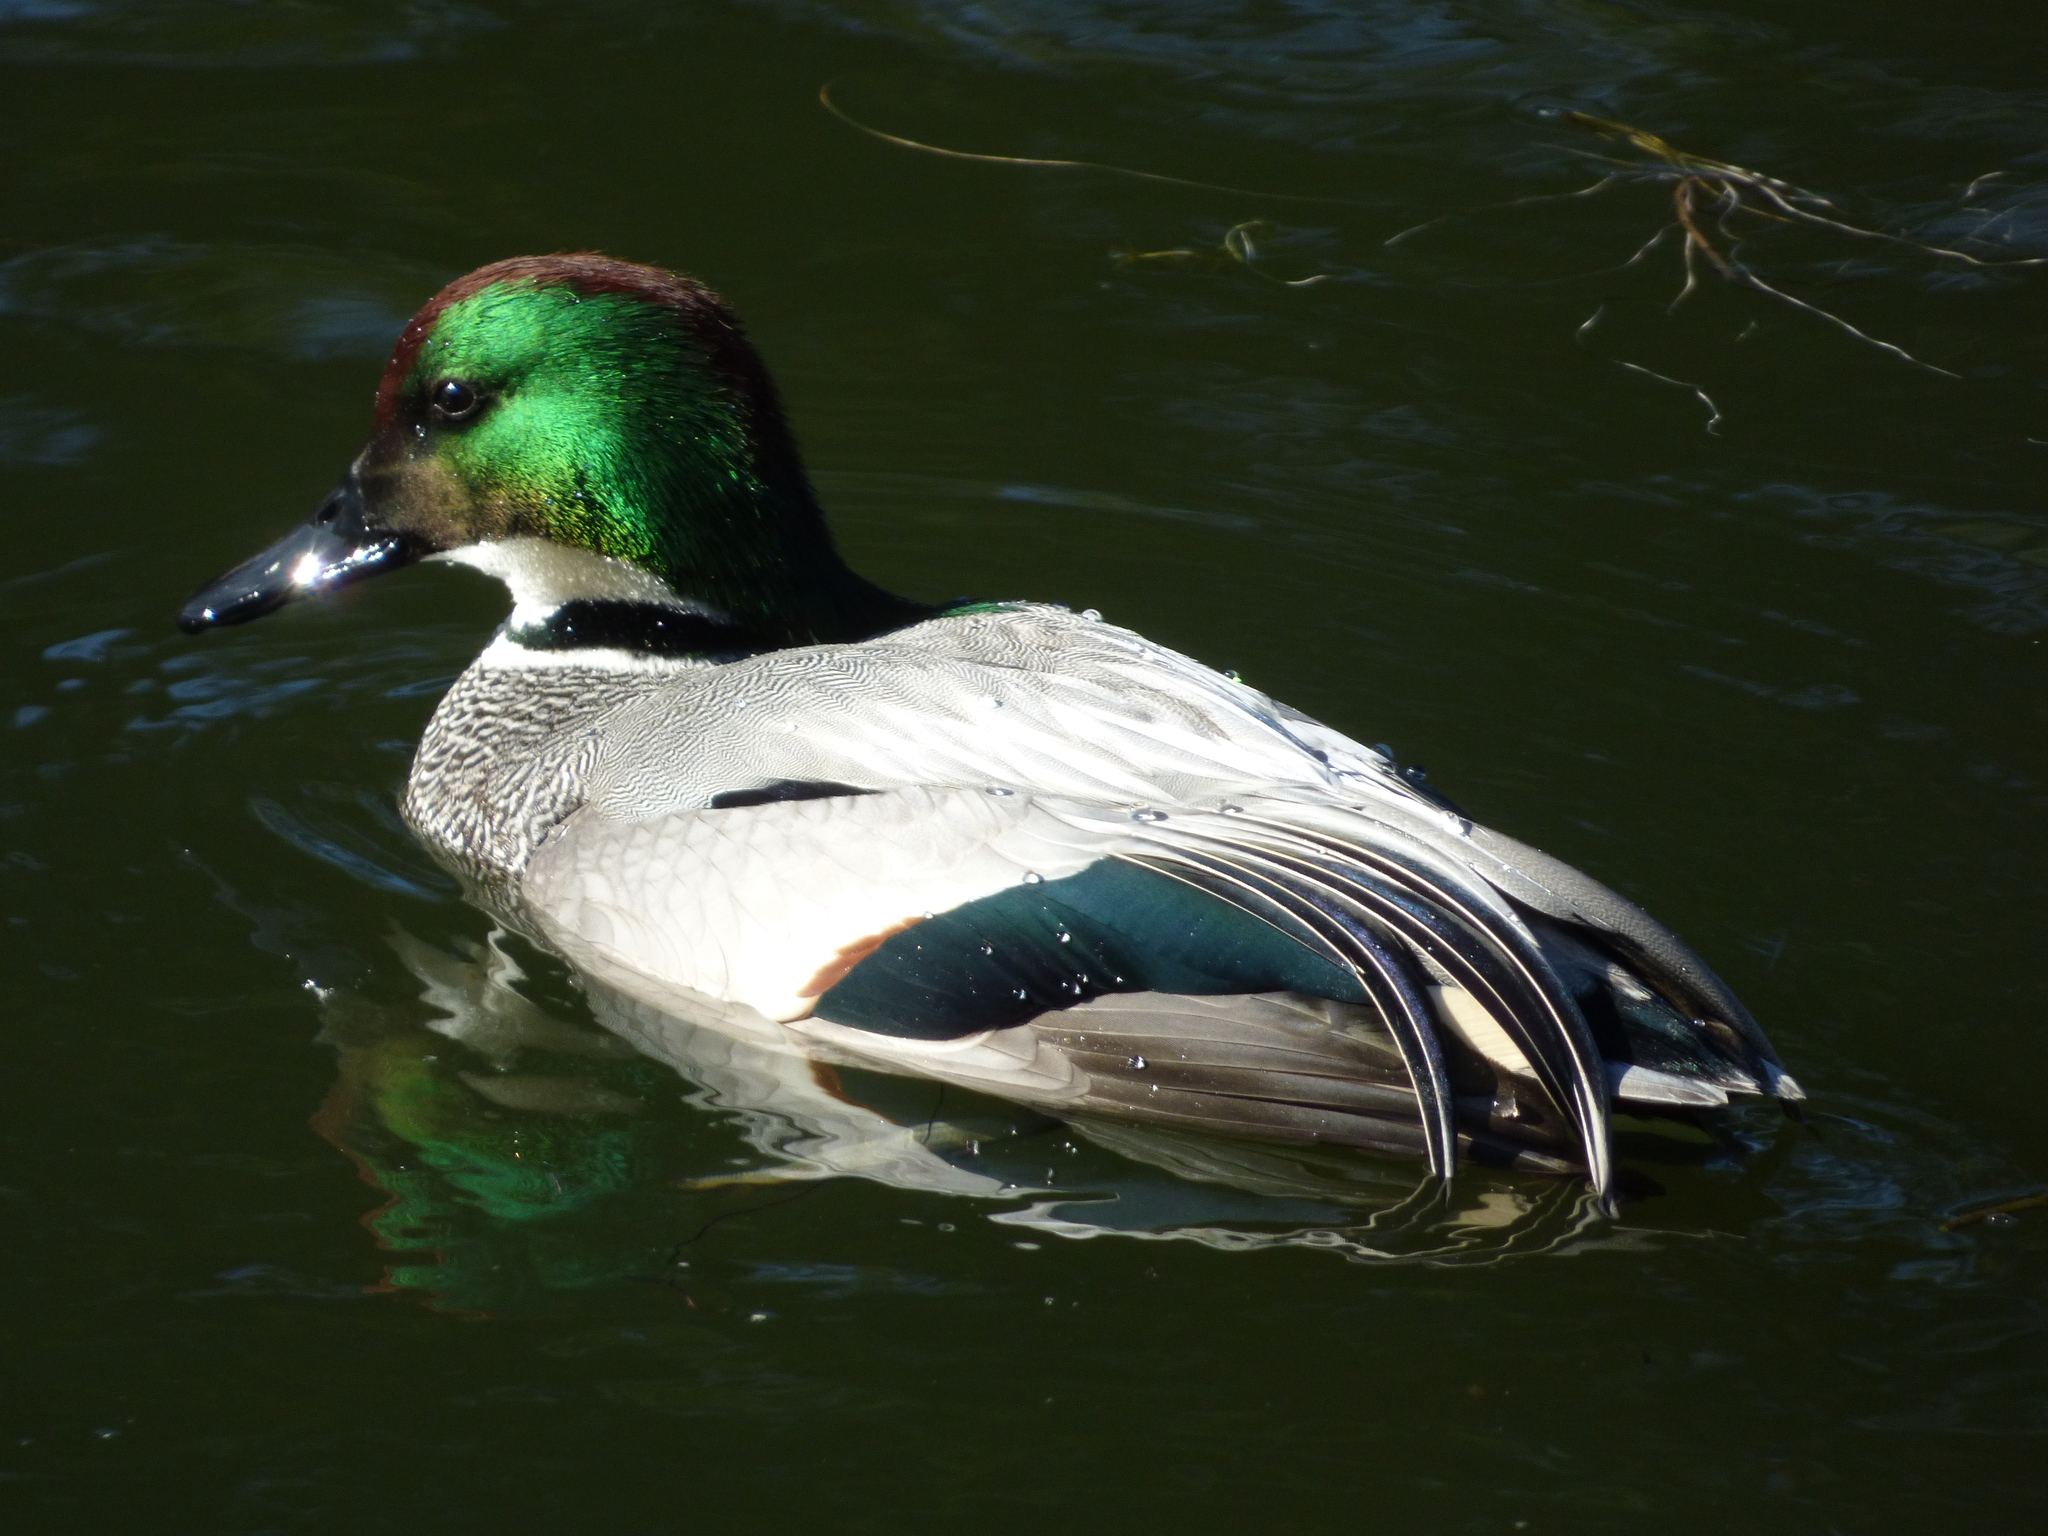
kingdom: Animalia
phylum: Chordata
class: Aves
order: Anseriformes
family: Anatidae
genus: Mareca
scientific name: Mareca falcata
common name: Falcated duck
